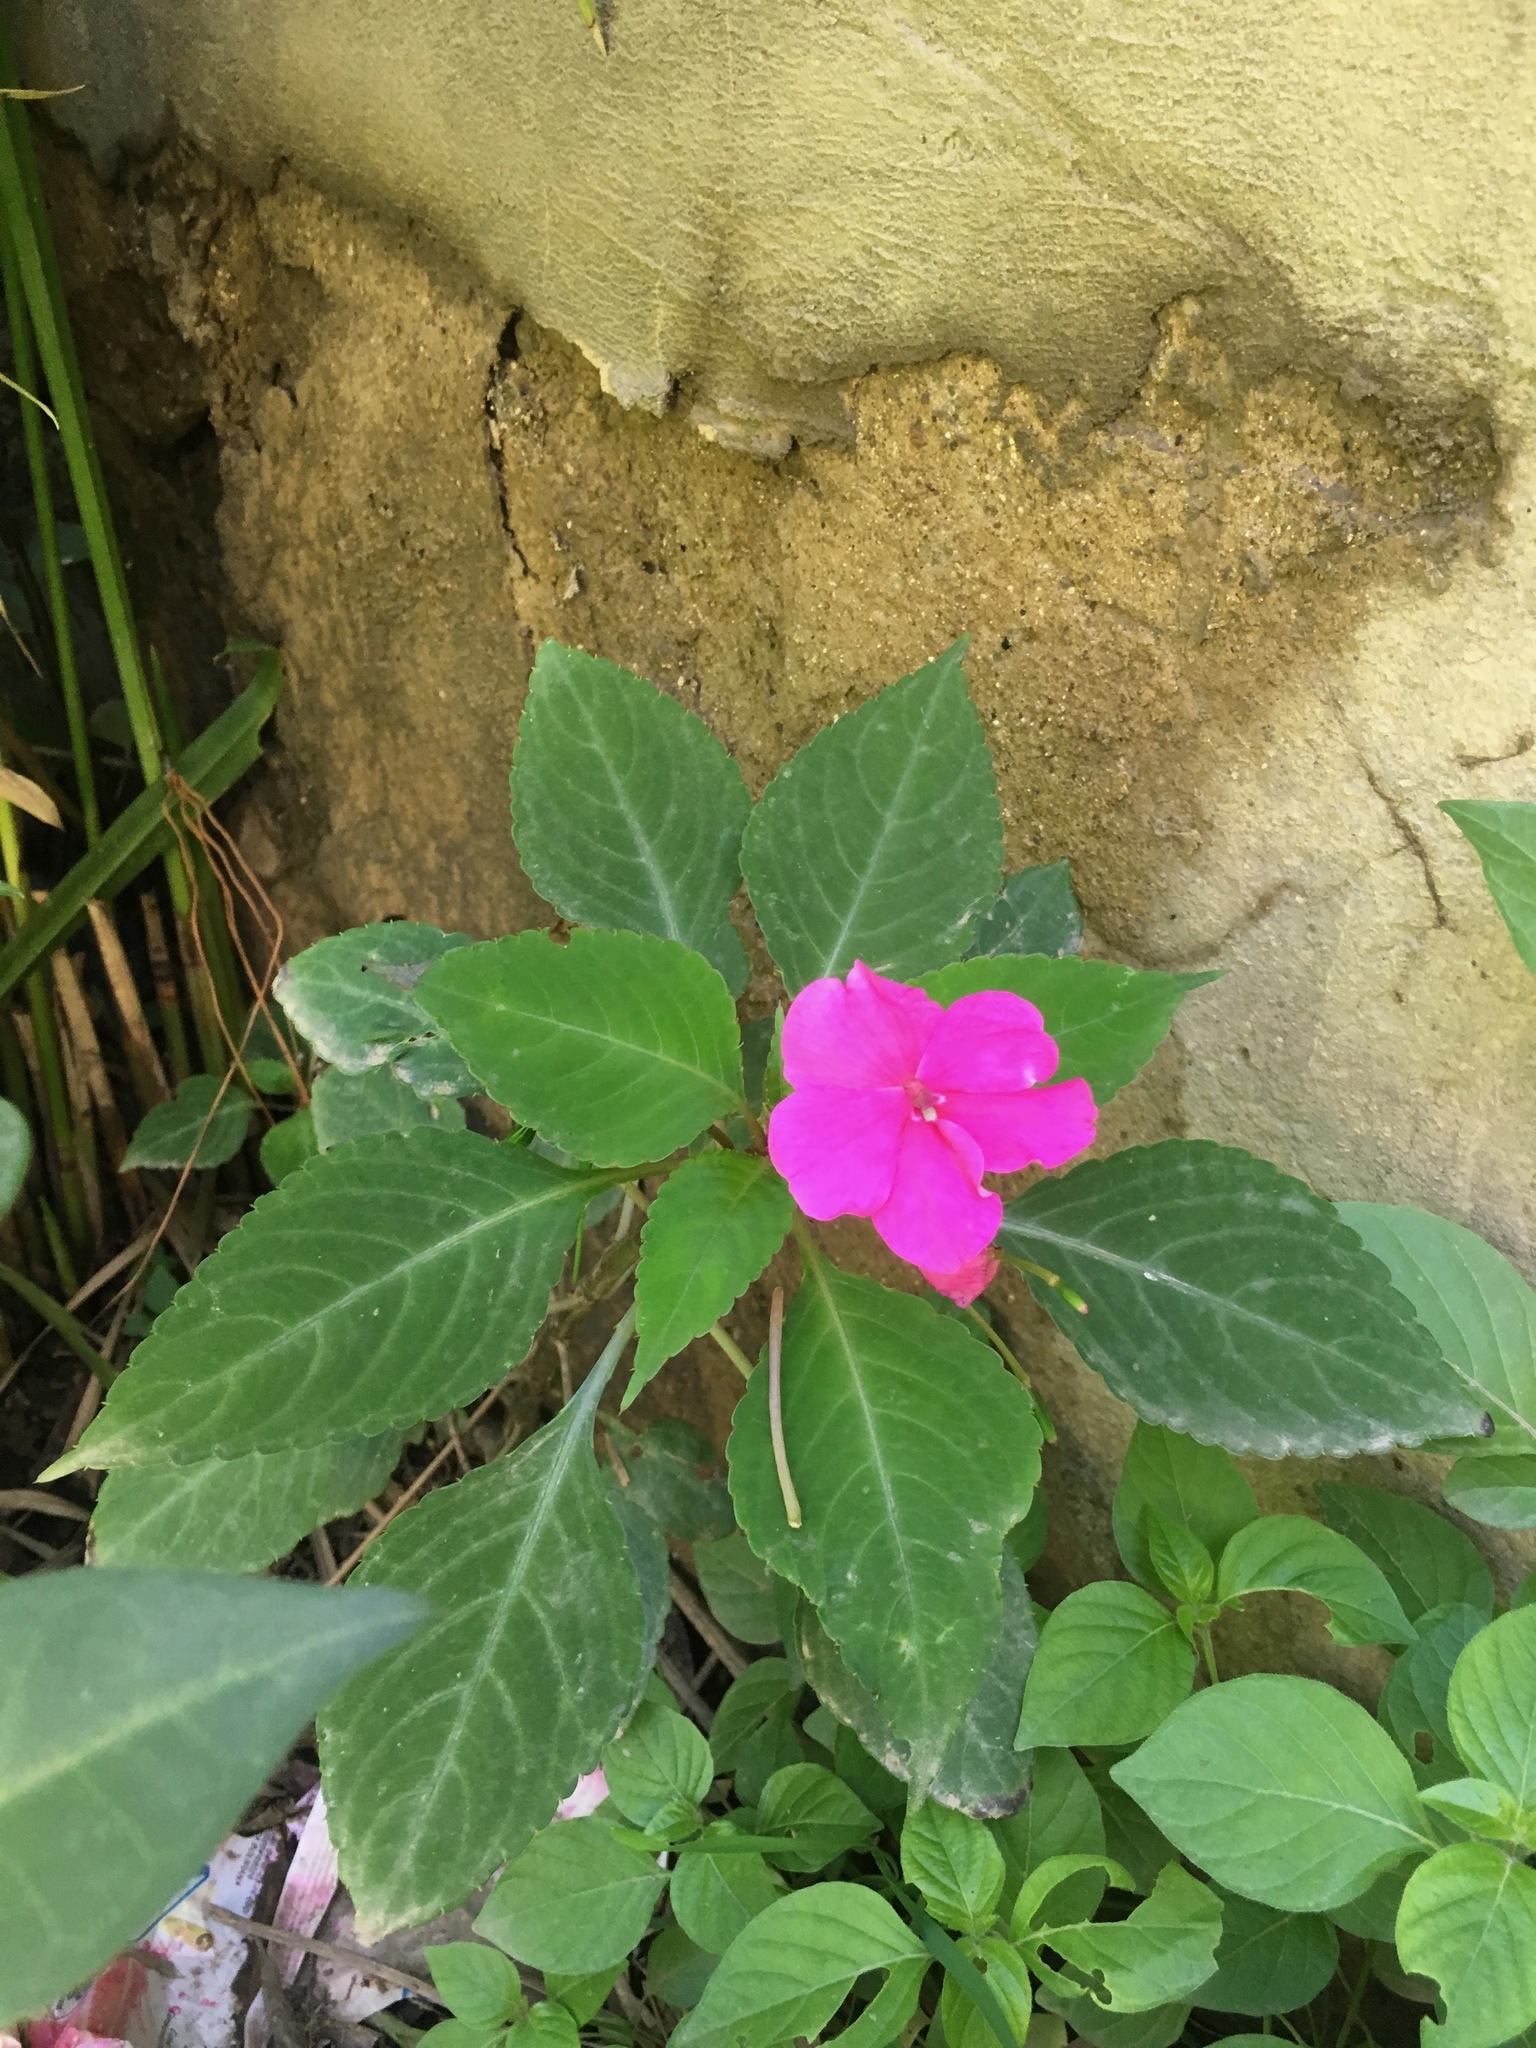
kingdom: Plantae
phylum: Tracheophyta
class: Magnoliopsida
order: Ericales
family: Balsaminaceae
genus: Impatiens
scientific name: Impatiens walleriana
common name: Buzzy lizzy
